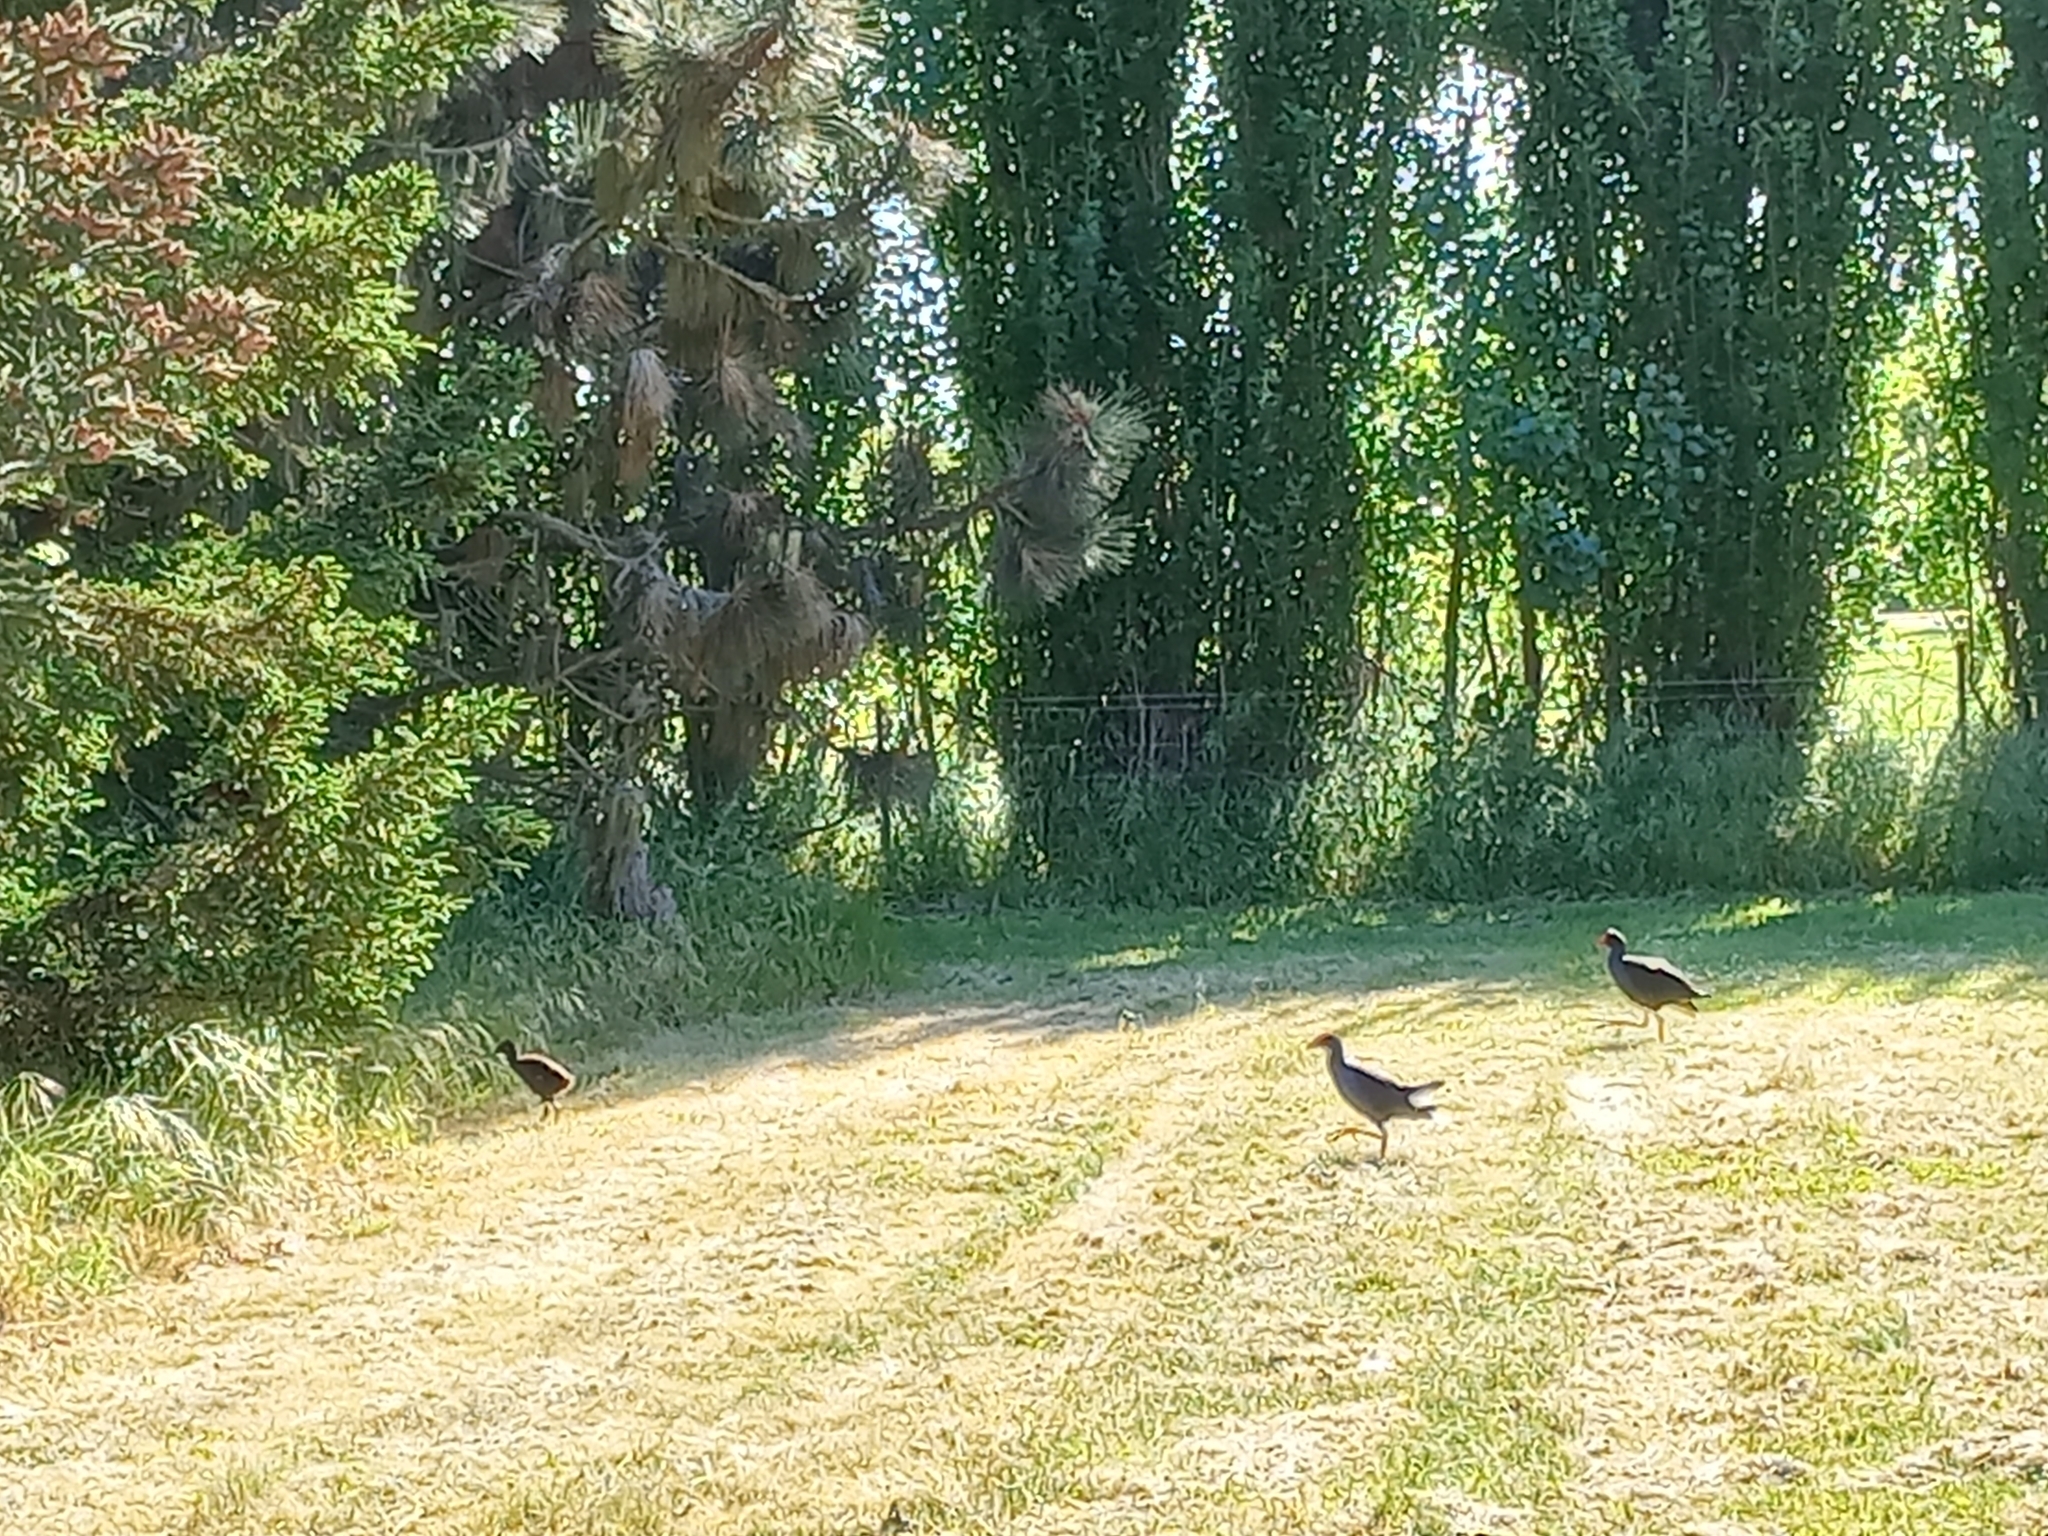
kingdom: Animalia
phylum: Chordata
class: Aves
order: Gruiformes
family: Rallidae
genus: Porphyrio
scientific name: Porphyrio melanotus
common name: Australasian swamphen
